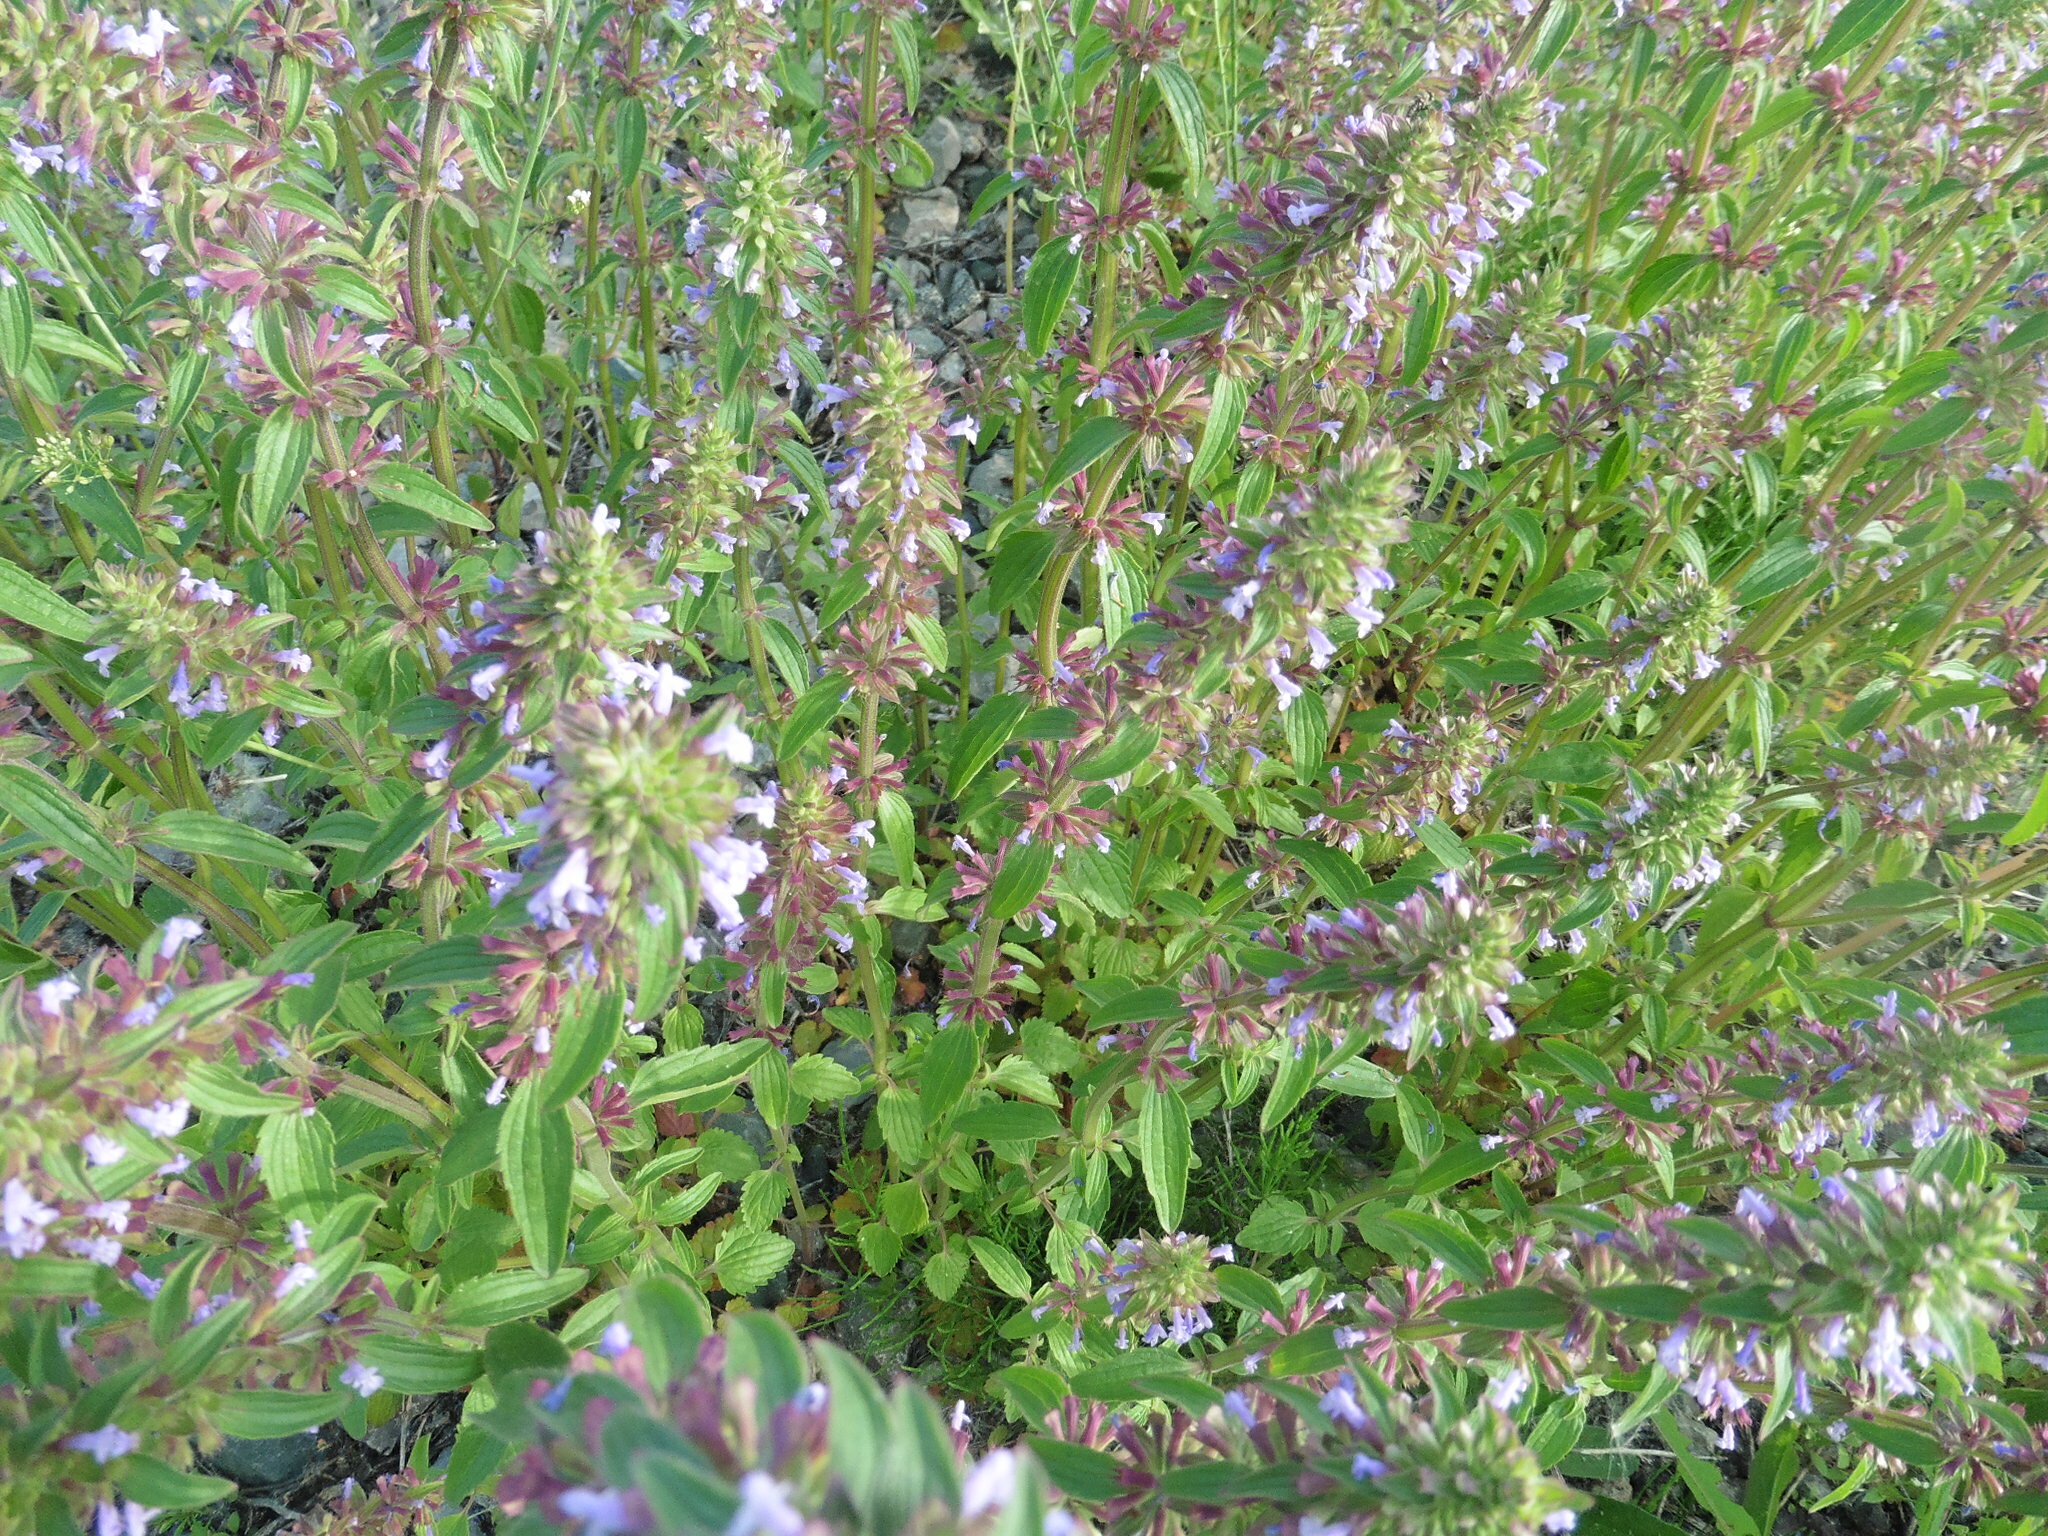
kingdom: Plantae
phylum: Tracheophyta
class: Magnoliopsida
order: Lamiales
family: Lamiaceae
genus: Dracocephalum
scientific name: Dracocephalum thymiflorum
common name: Thymeleaf dragonhead
